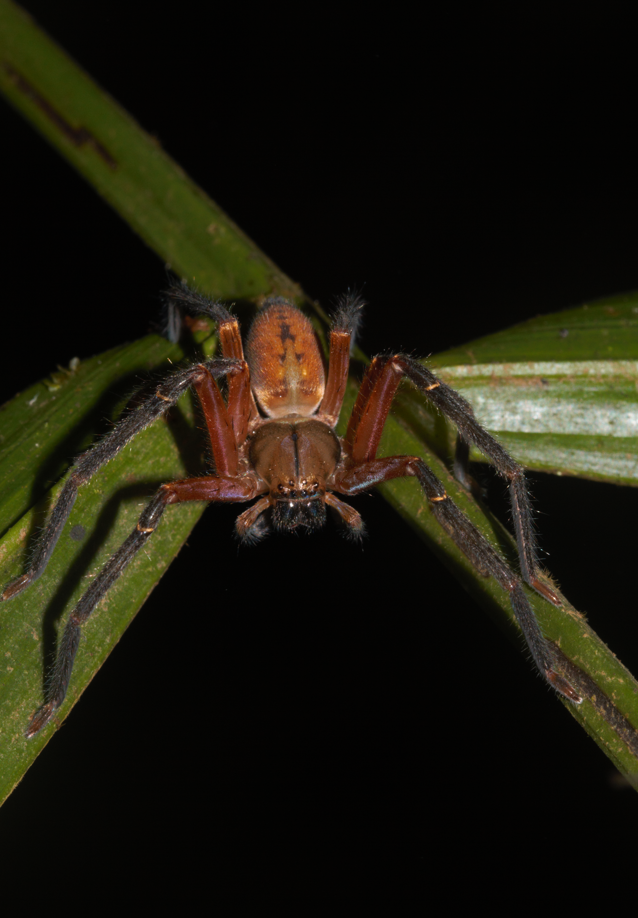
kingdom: Animalia
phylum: Arthropoda
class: Arachnida
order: Araneae
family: Sparassidae
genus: Sadala
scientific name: Sadala velox
